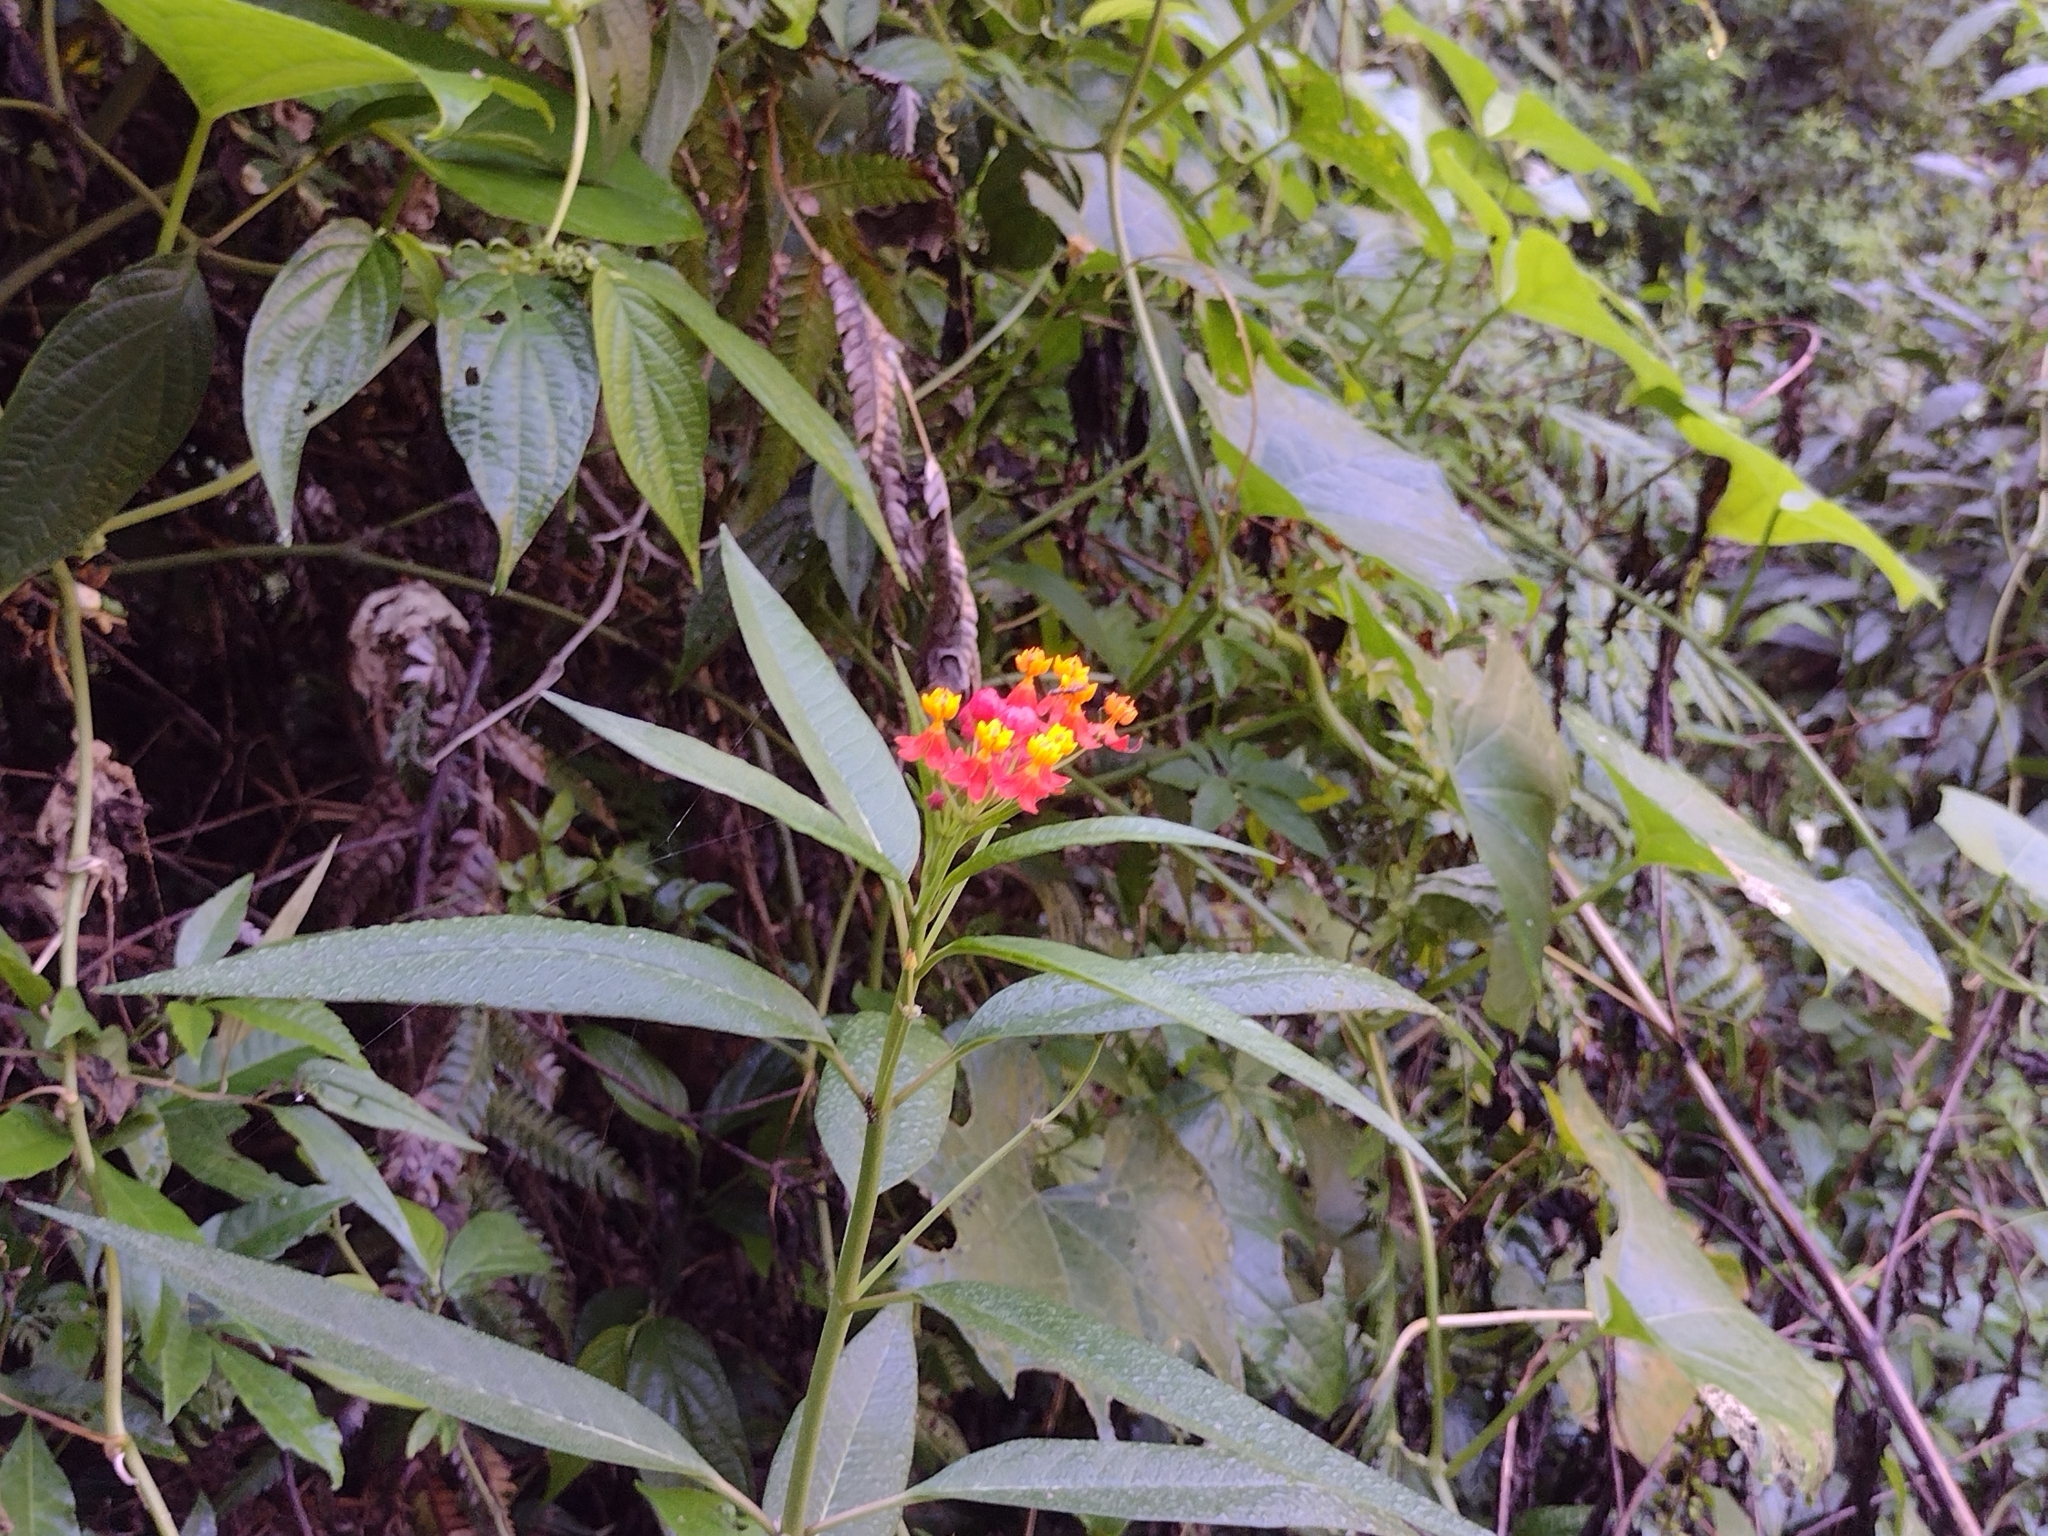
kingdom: Plantae
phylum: Tracheophyta
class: Magnoliopsida
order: Gentianales
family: Apocynaceae
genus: Asclepias
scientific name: Asclepias curassavica
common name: Bloodflower
